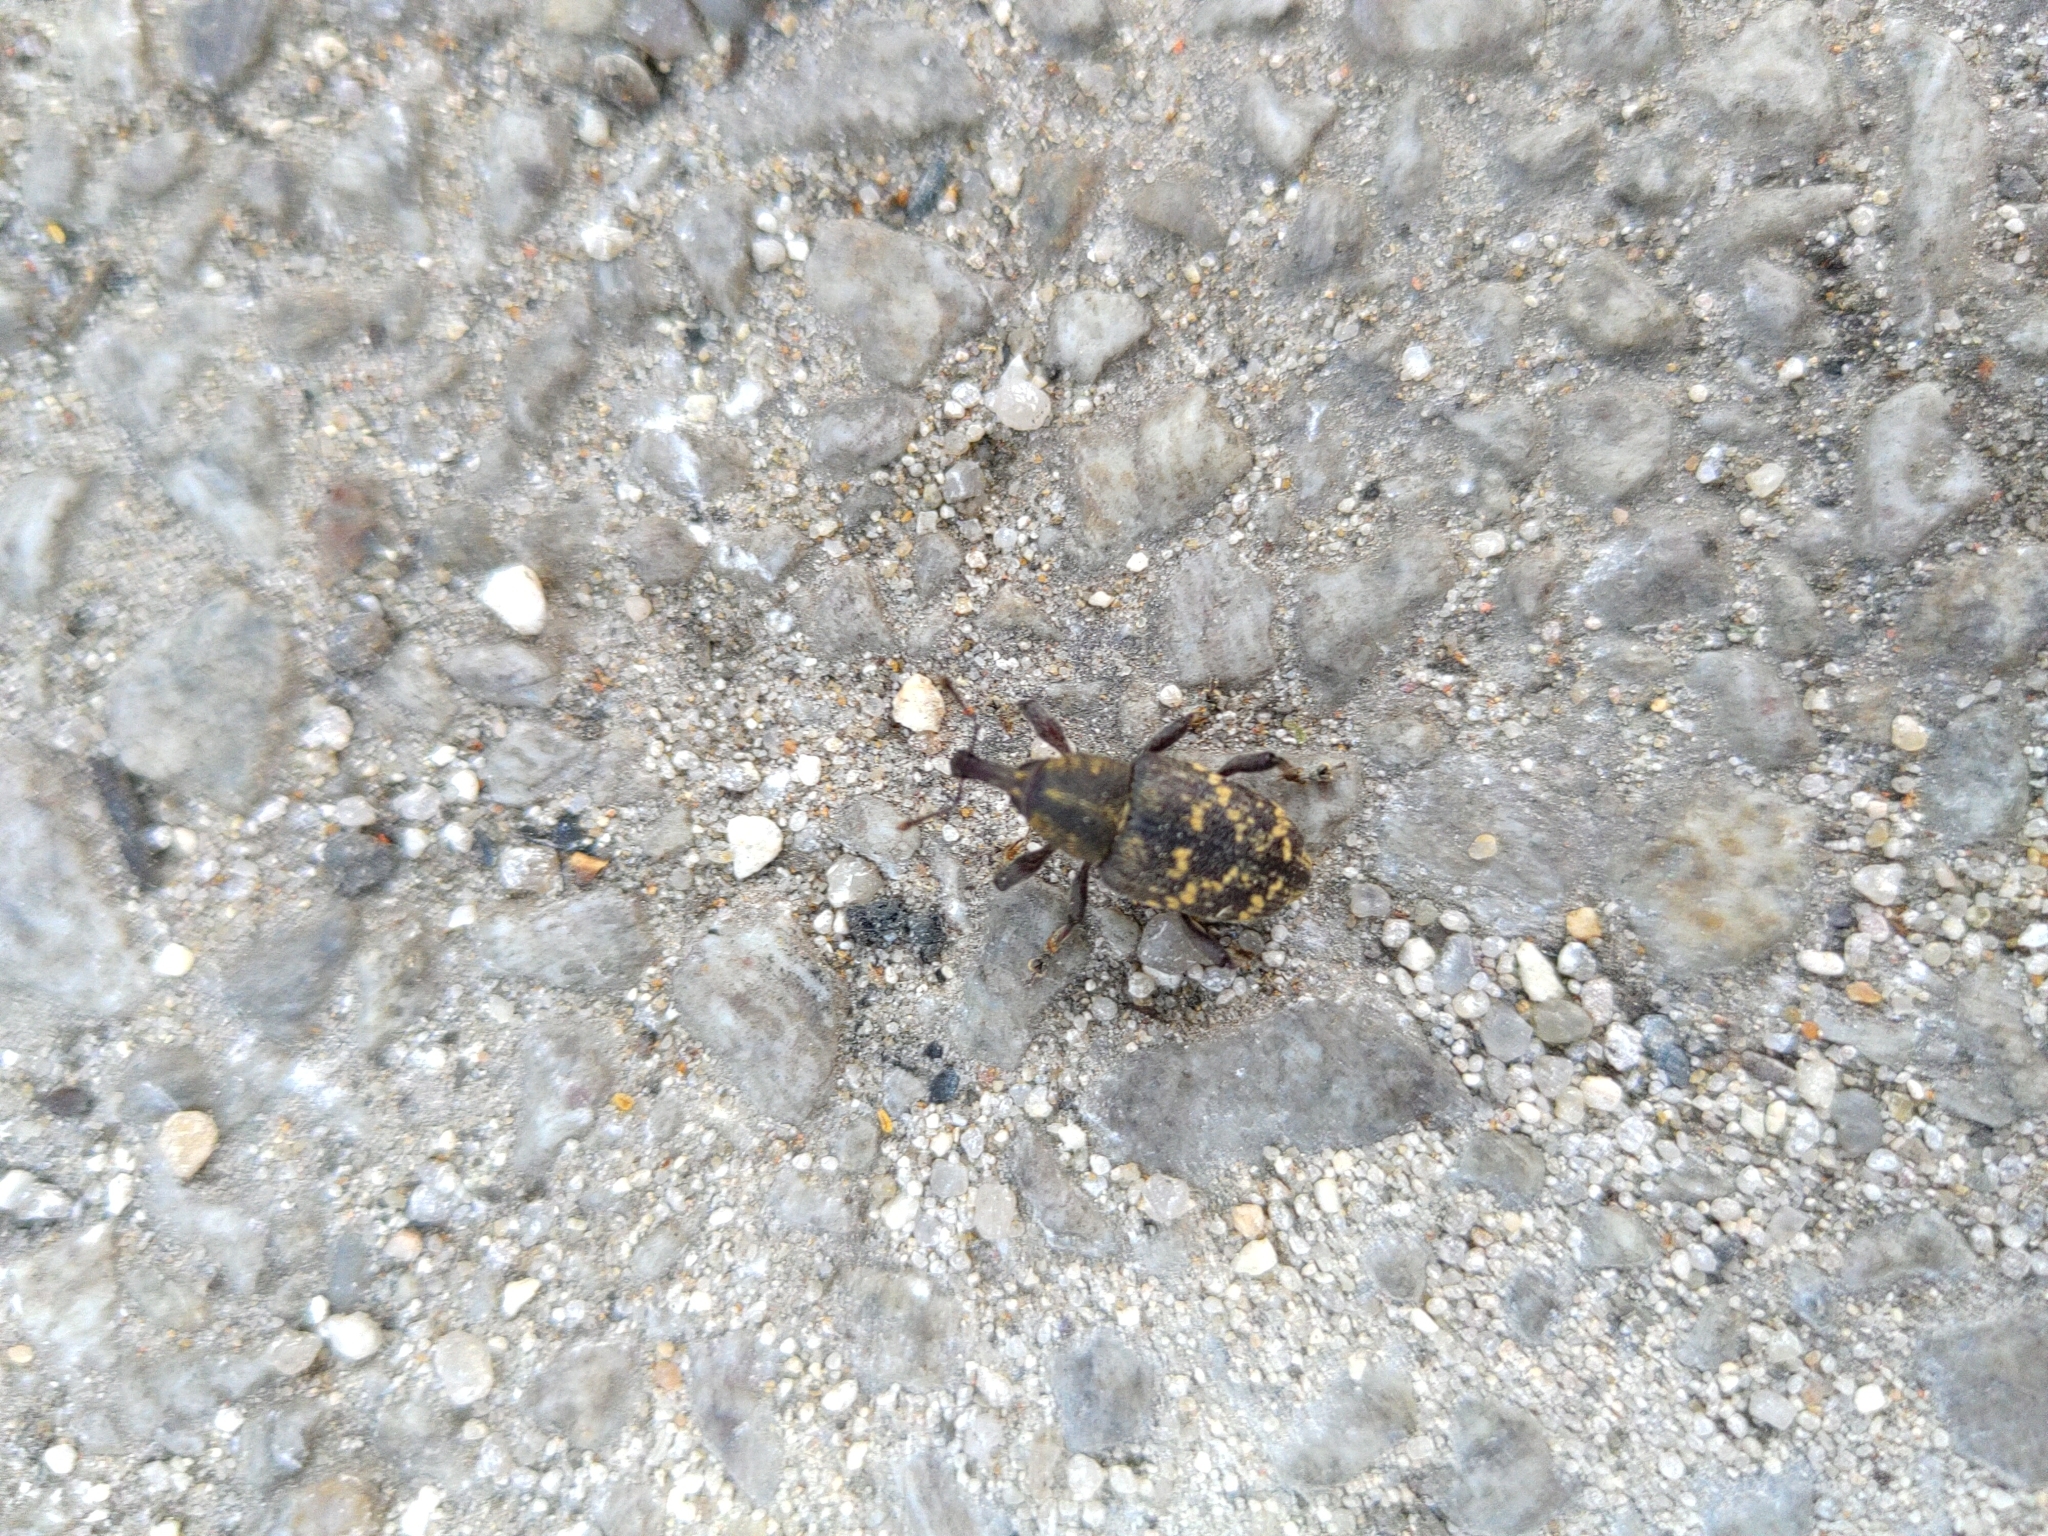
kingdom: Animalia
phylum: Arthropoda
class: Insecta
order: Coleoptera
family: Curculionidae
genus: Hylobius
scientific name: Hylobius abietis
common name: Large pine weevil
